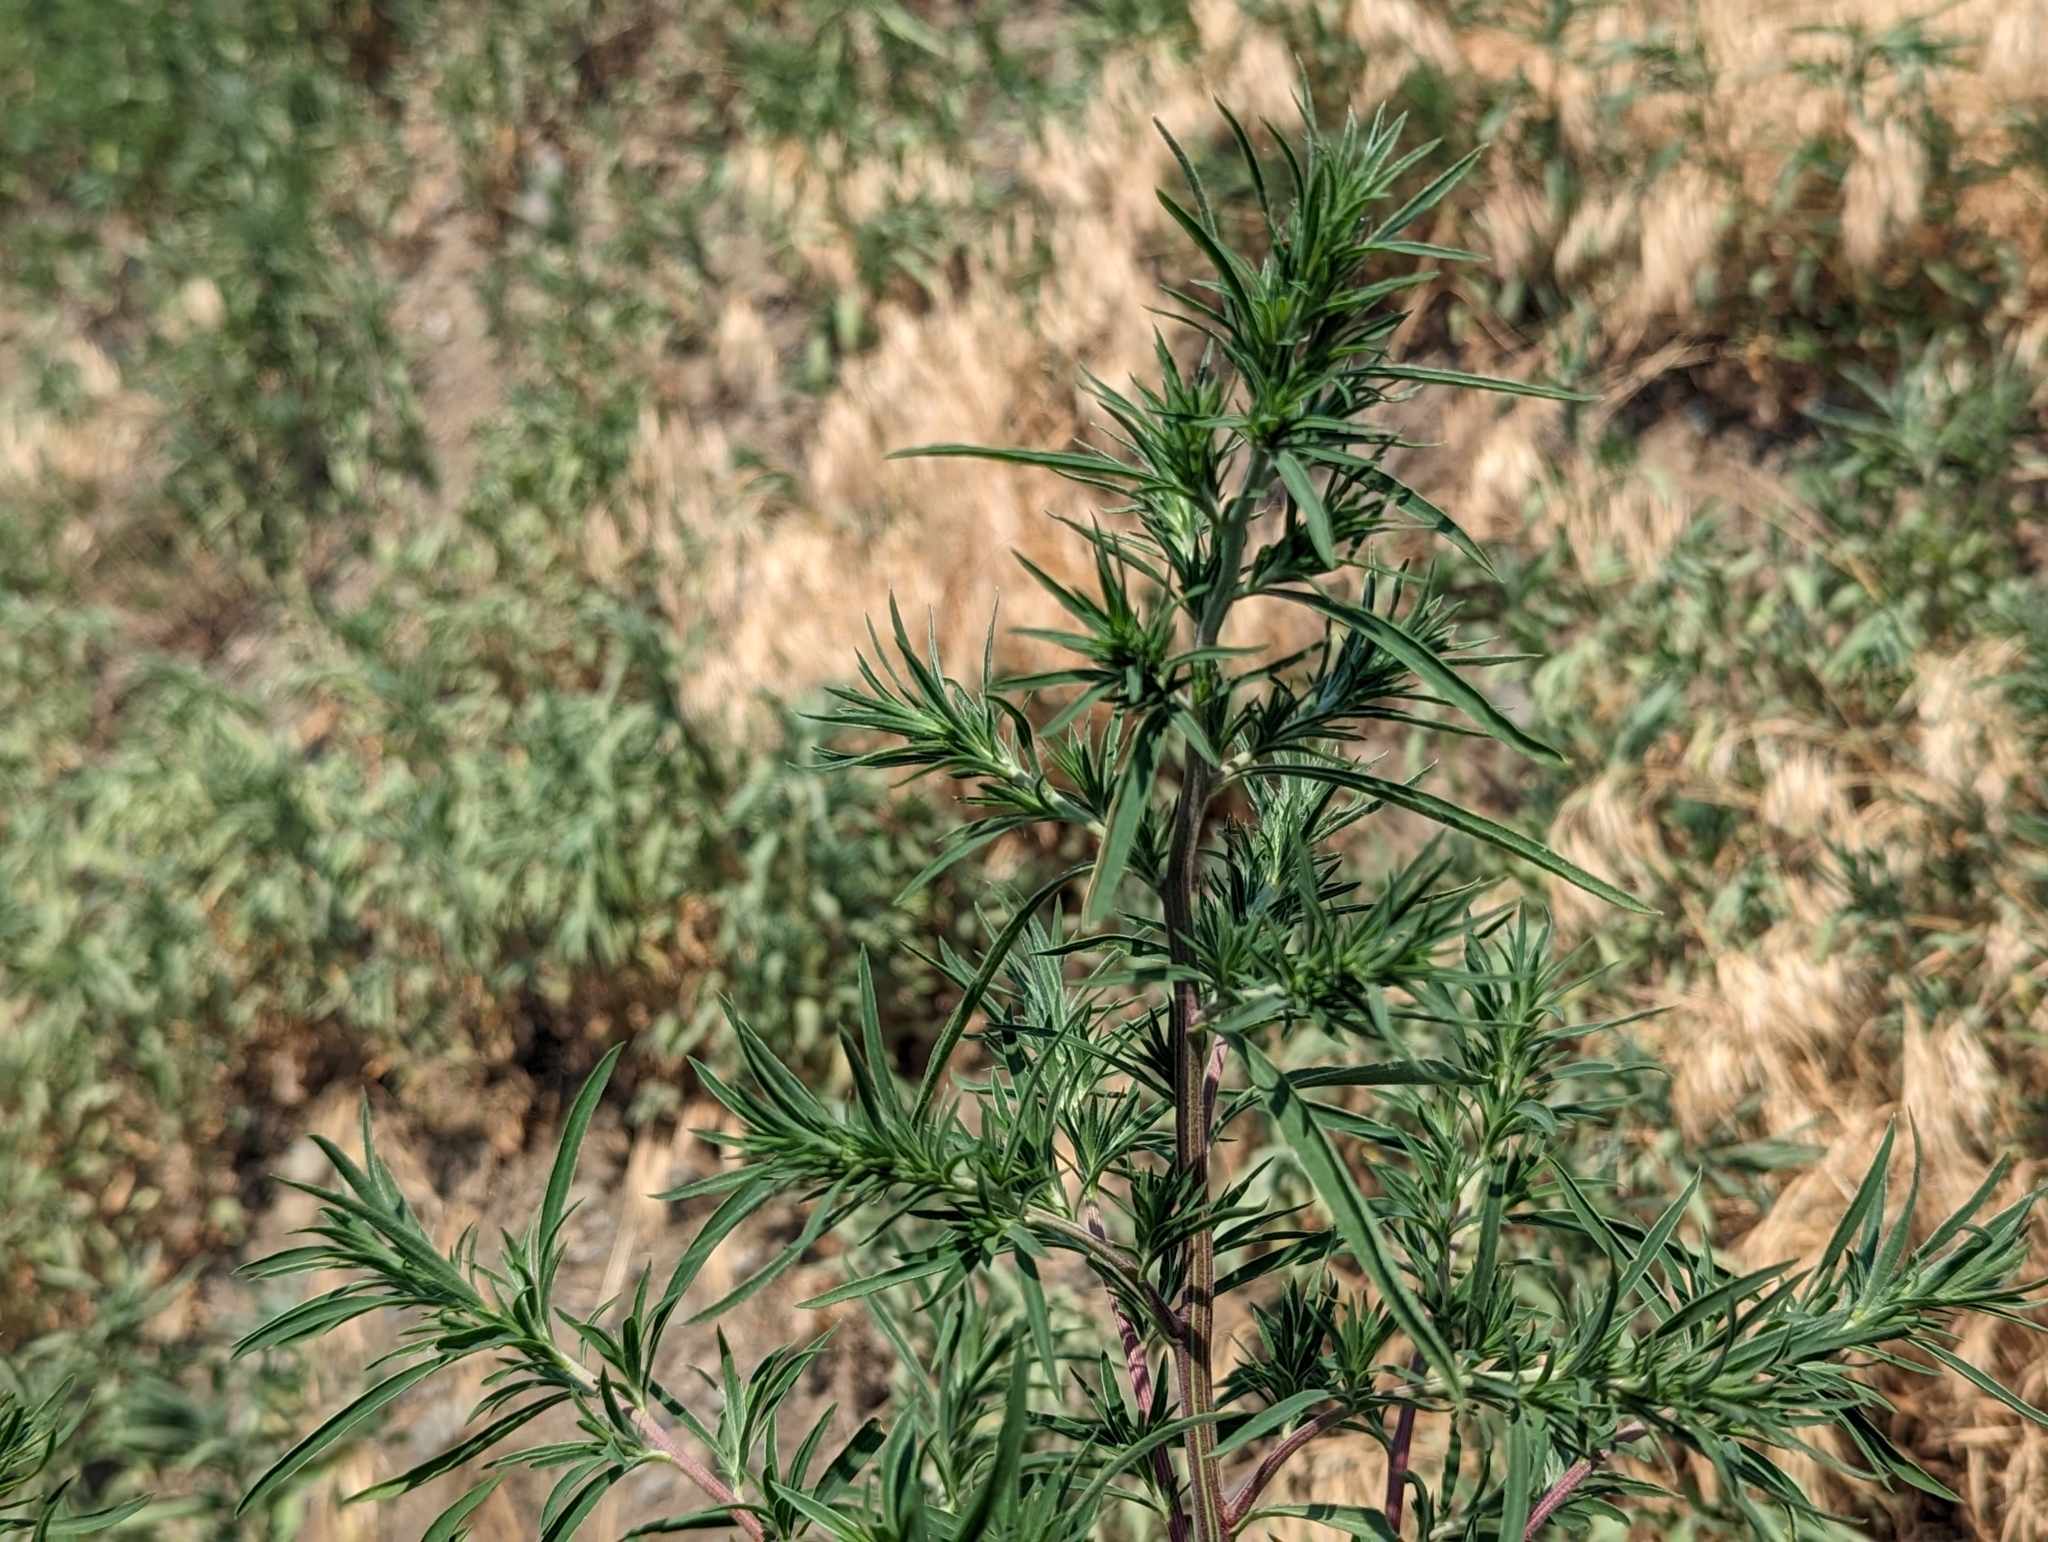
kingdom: Plantae
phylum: Tracheophyta
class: Magnoliopsida
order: Caryophyllales
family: Amaranthaceae
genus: Bassia
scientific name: Bassia scoparia
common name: Belvedere
